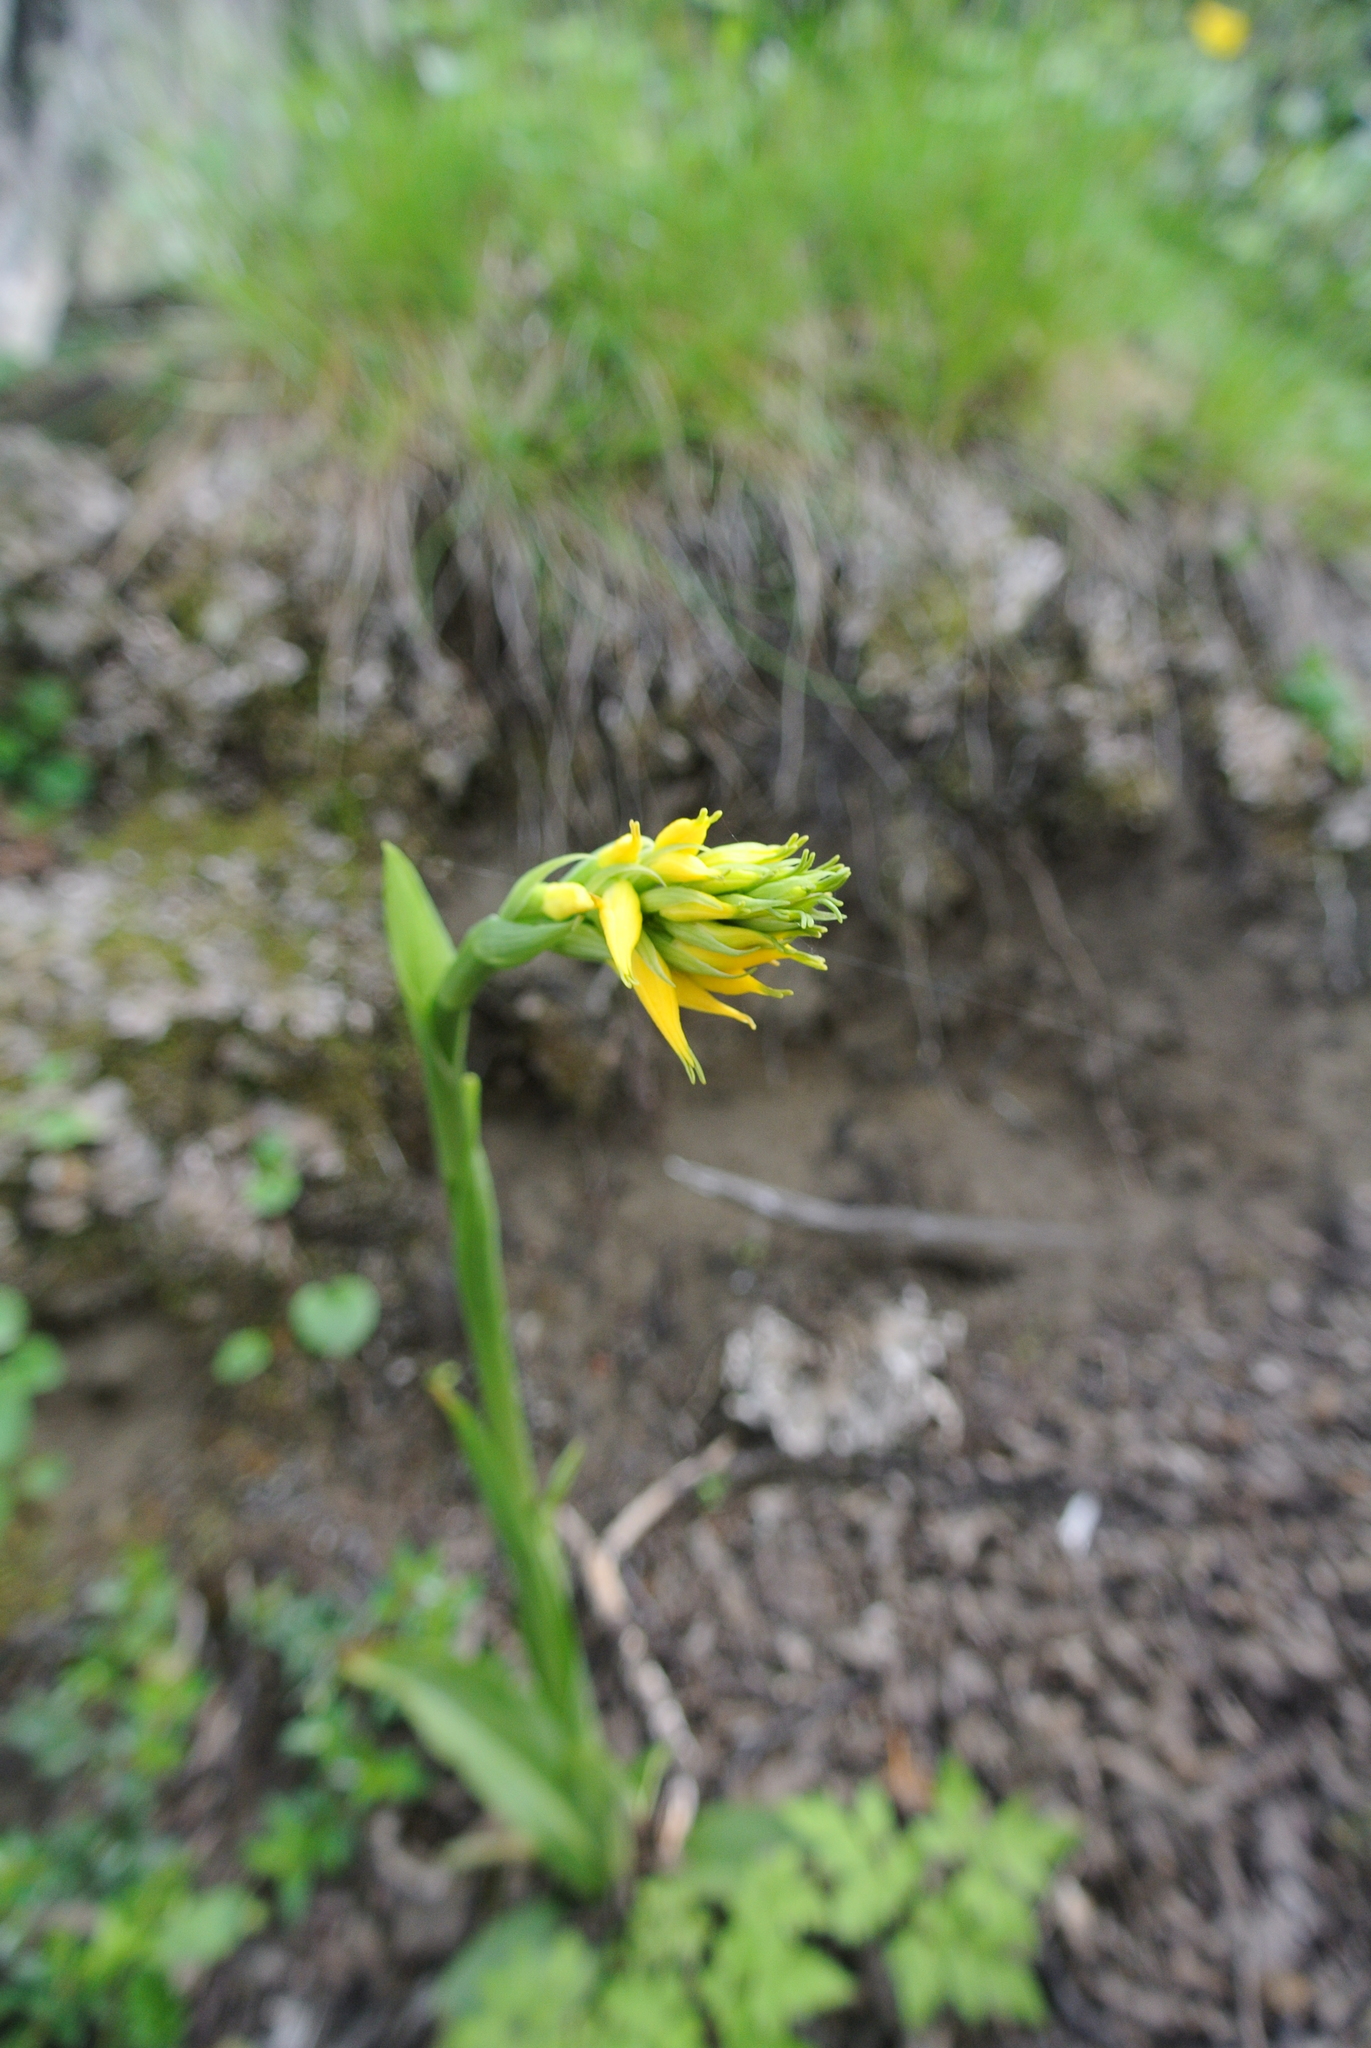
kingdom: Plantae
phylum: Tracheophyta
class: Liliopsida
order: Asparagales
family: Orchidaceae
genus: Gavilea
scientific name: Gavilea lutea
